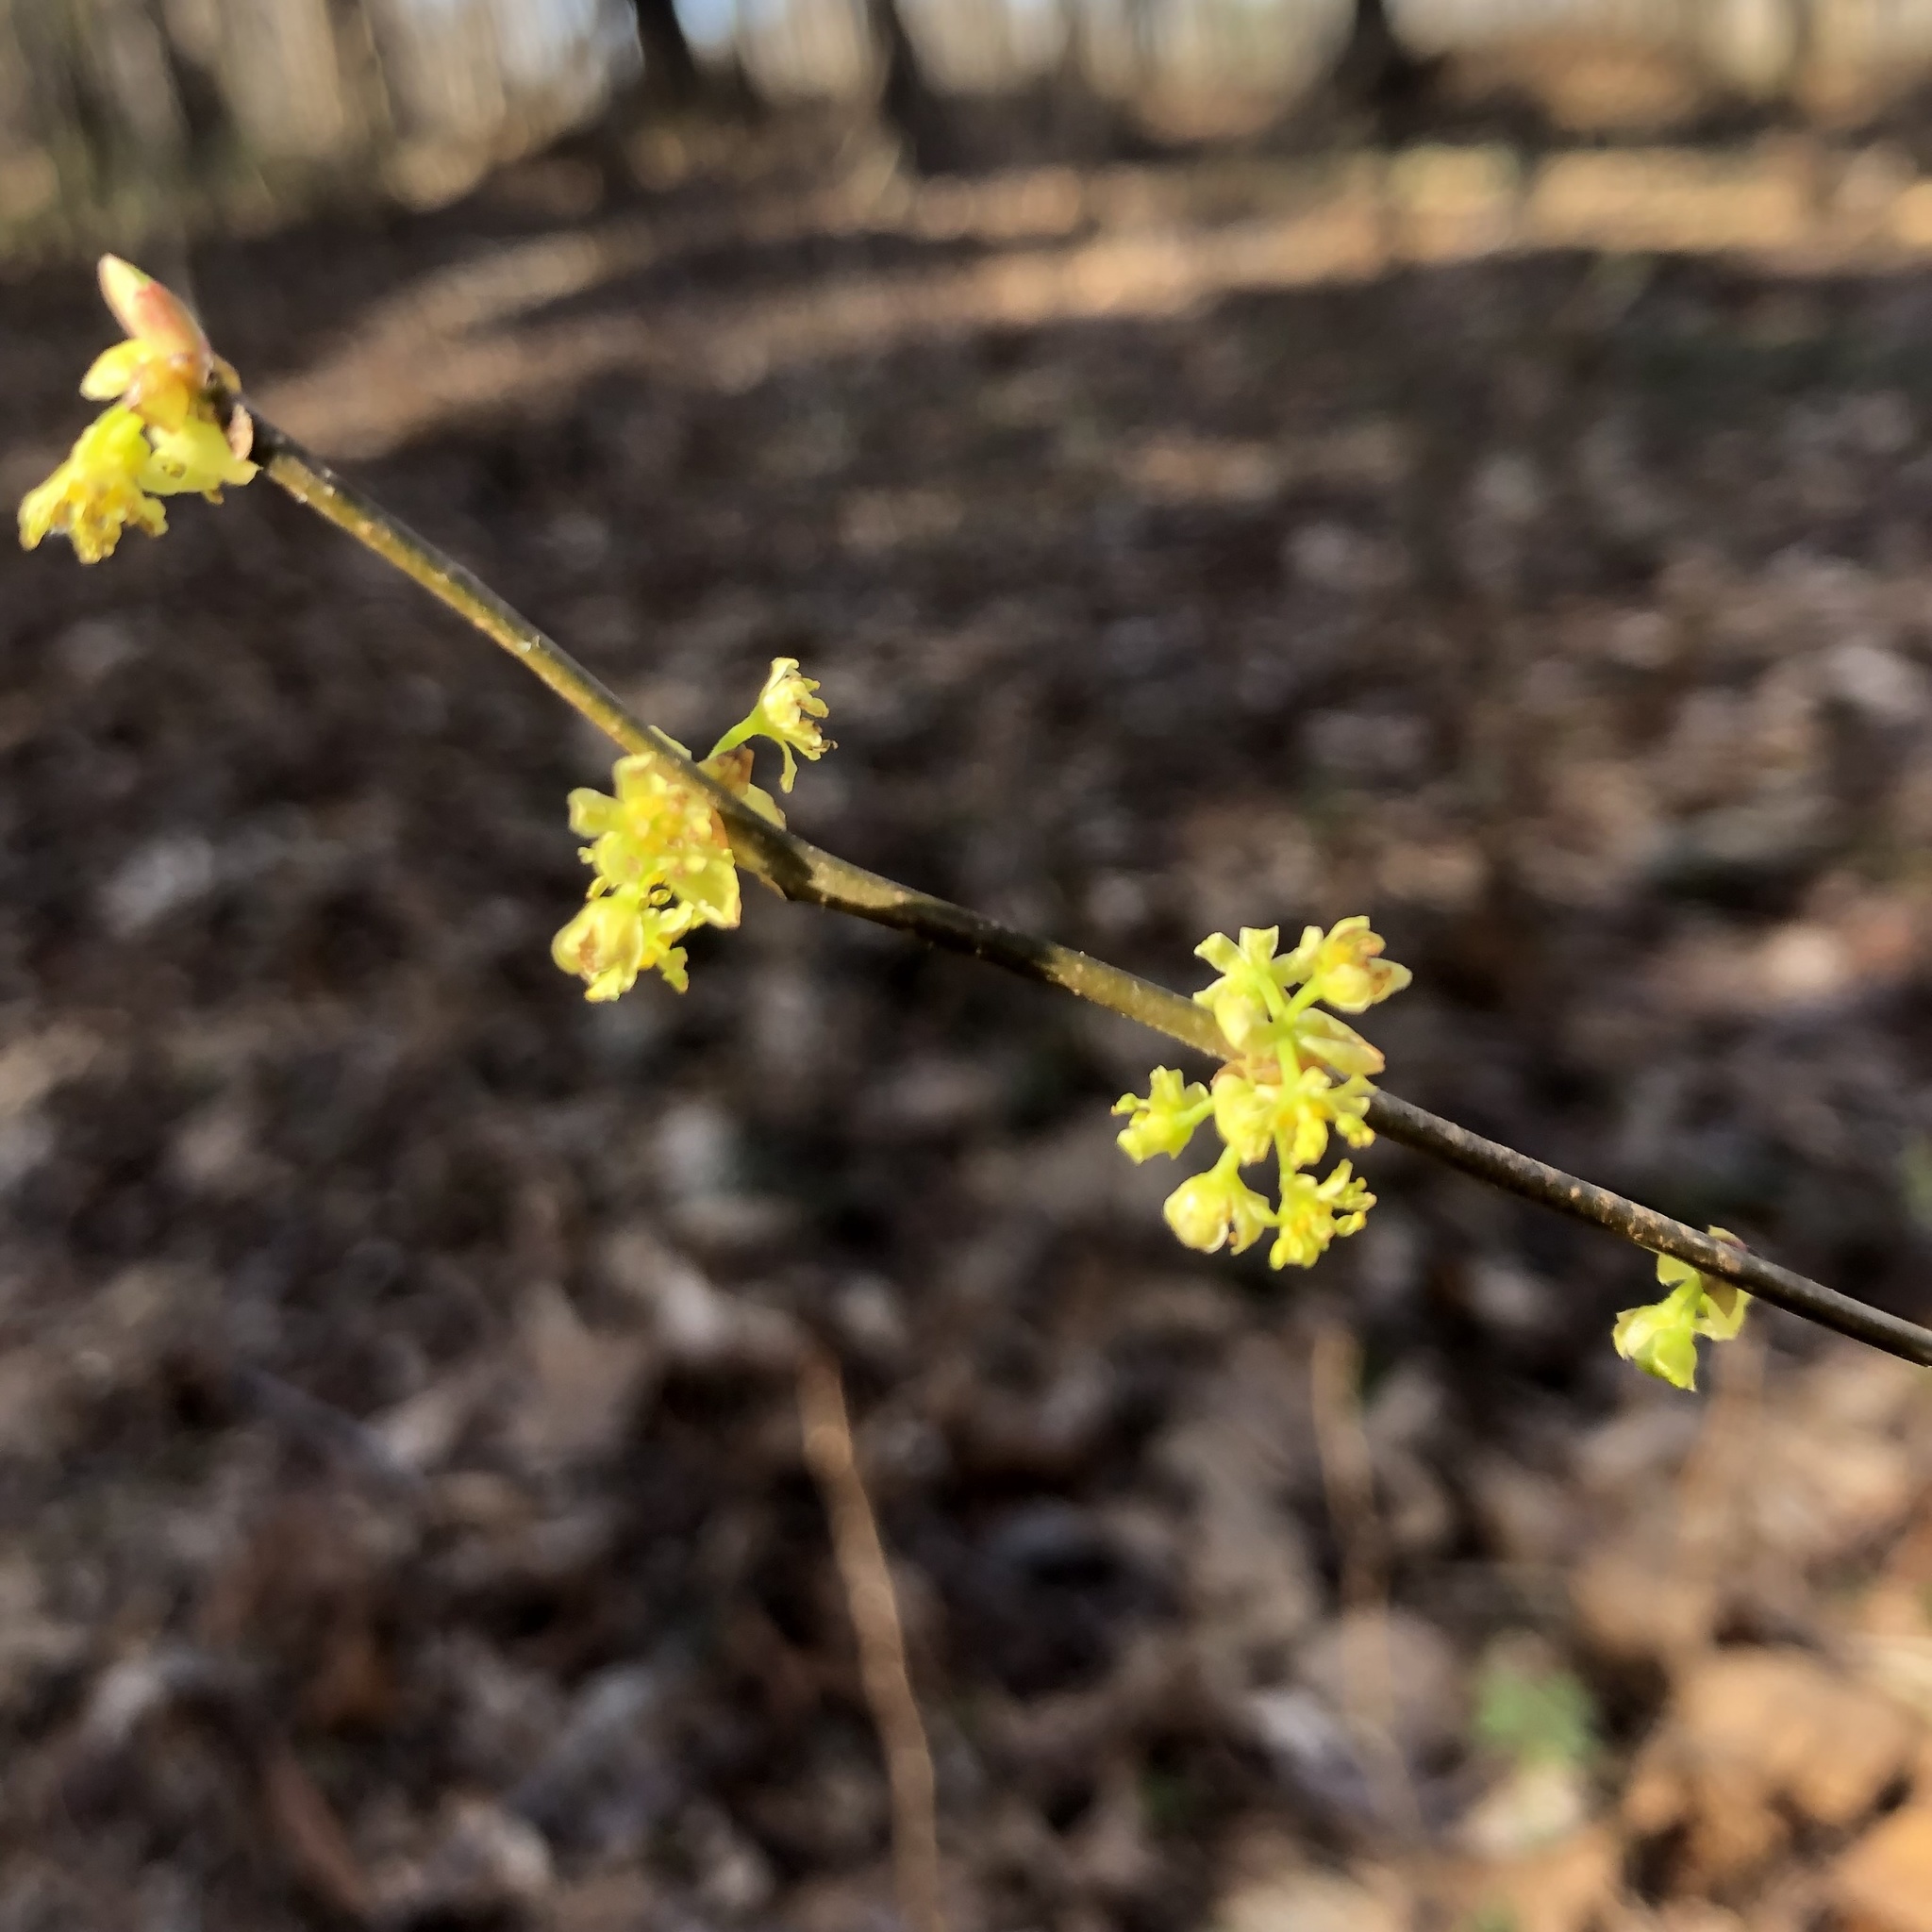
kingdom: Plantae
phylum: Tracheophyta
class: Magnoliopsida
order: Laurales
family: Lauraceae
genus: Lindera
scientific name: Lindera benzoin
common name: Spicebush
